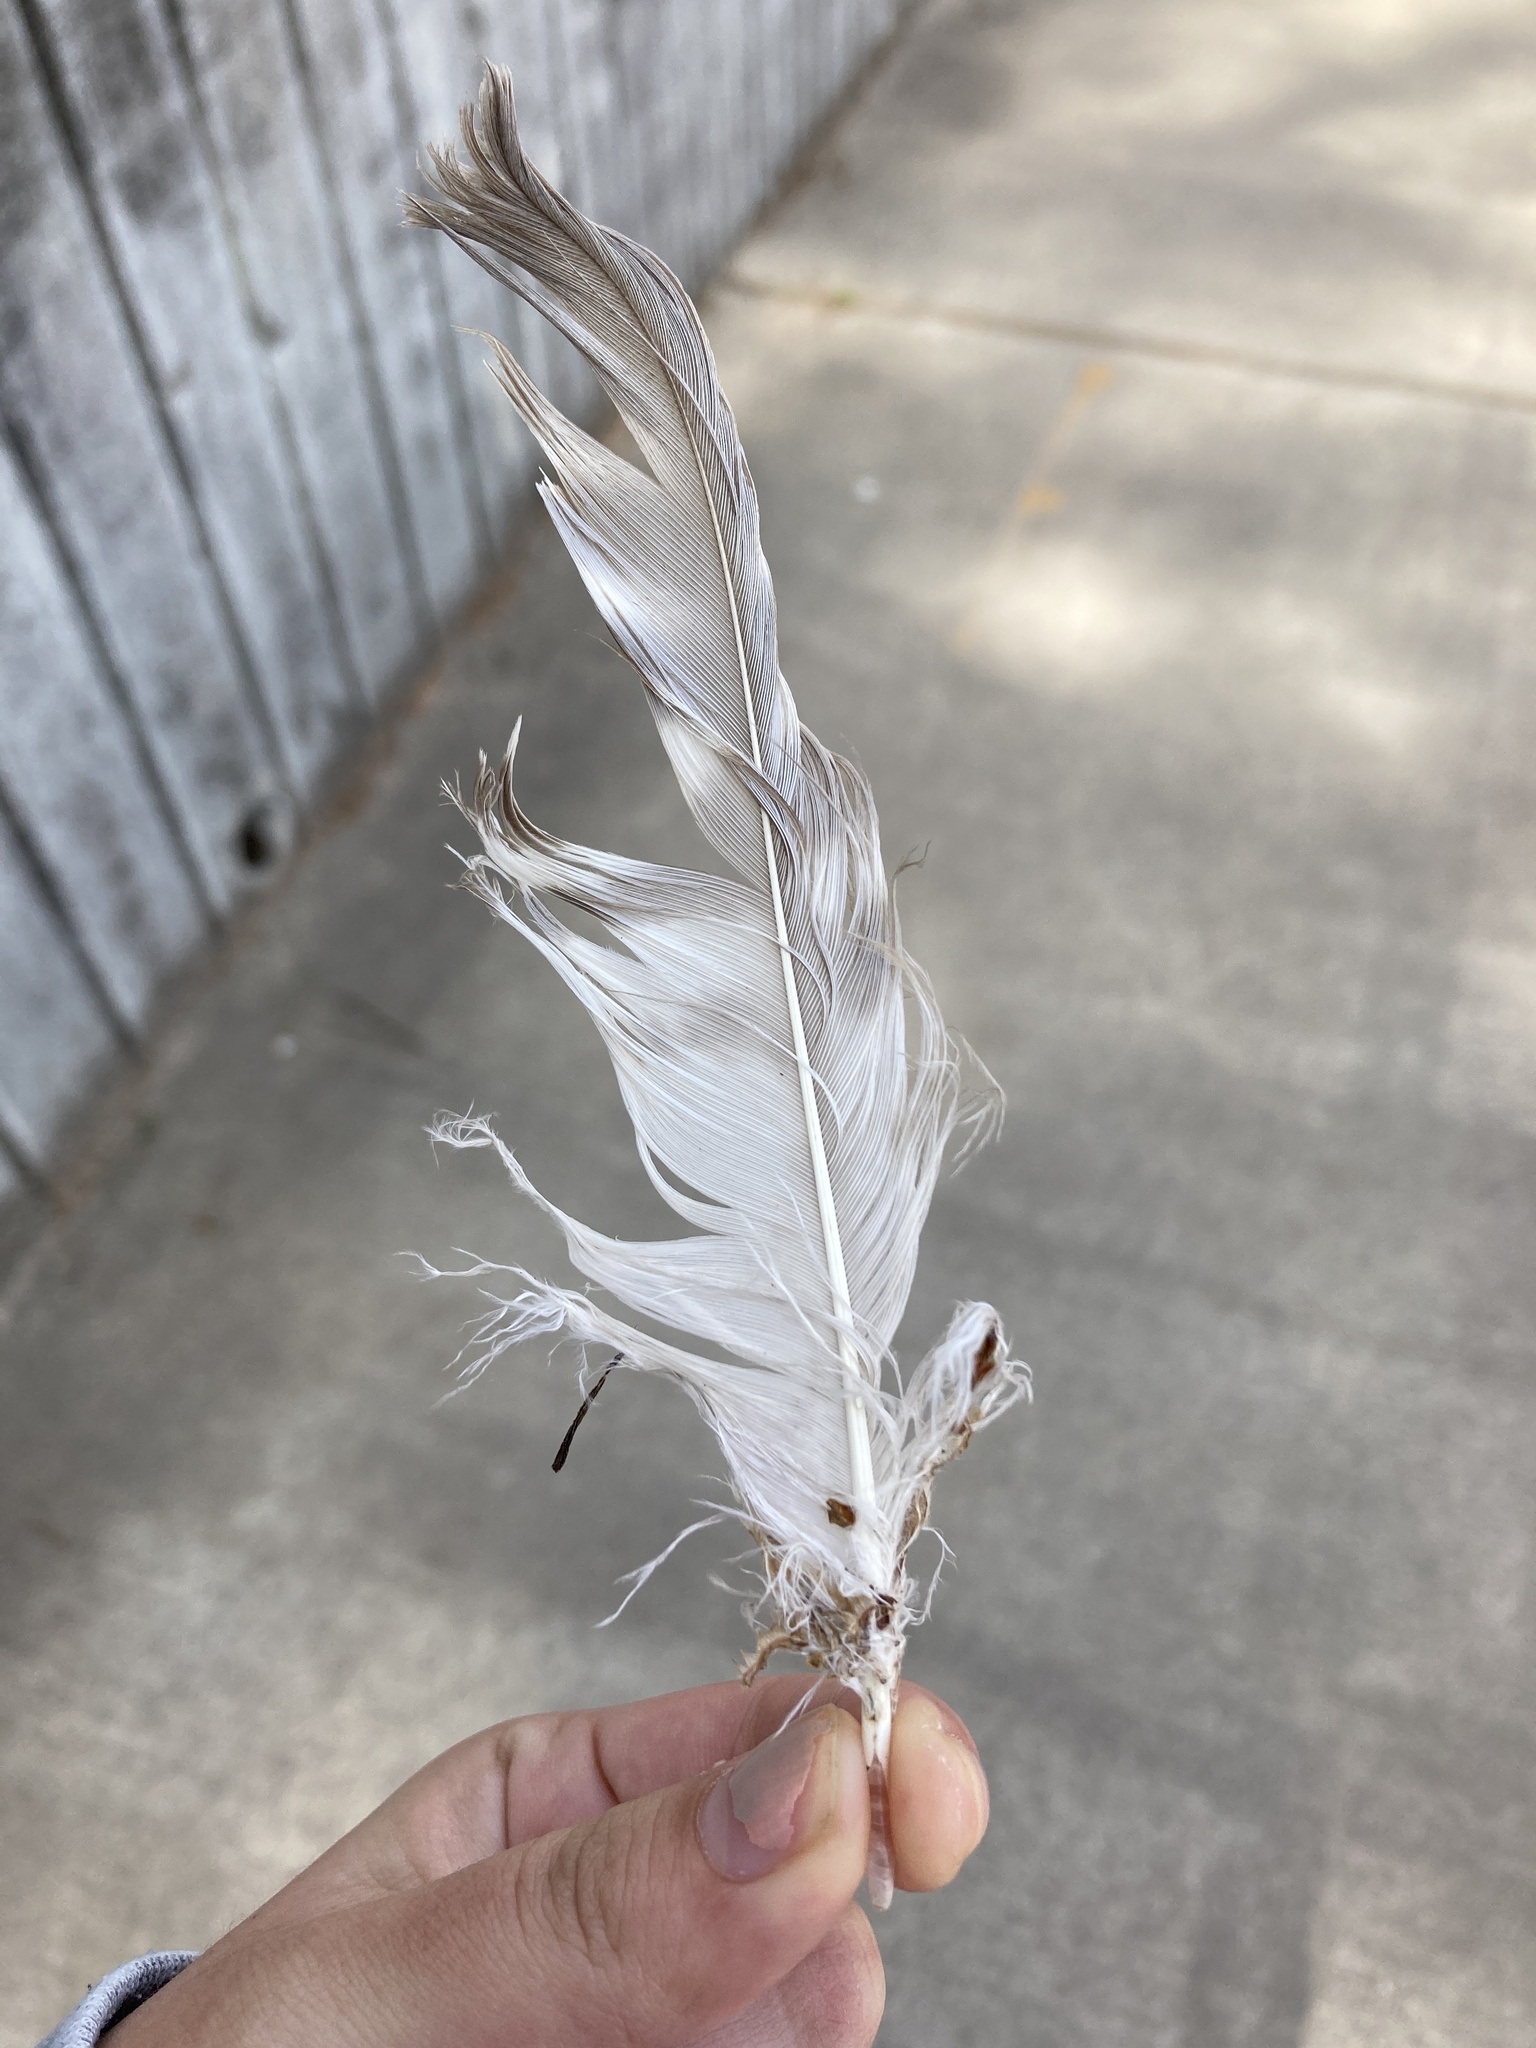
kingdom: Animalia
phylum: Chordata
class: Aves
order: Accipitriformes
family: Accipitridae
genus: Buteo
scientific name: Buteo jamaicensis
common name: Red-tailed hawk
